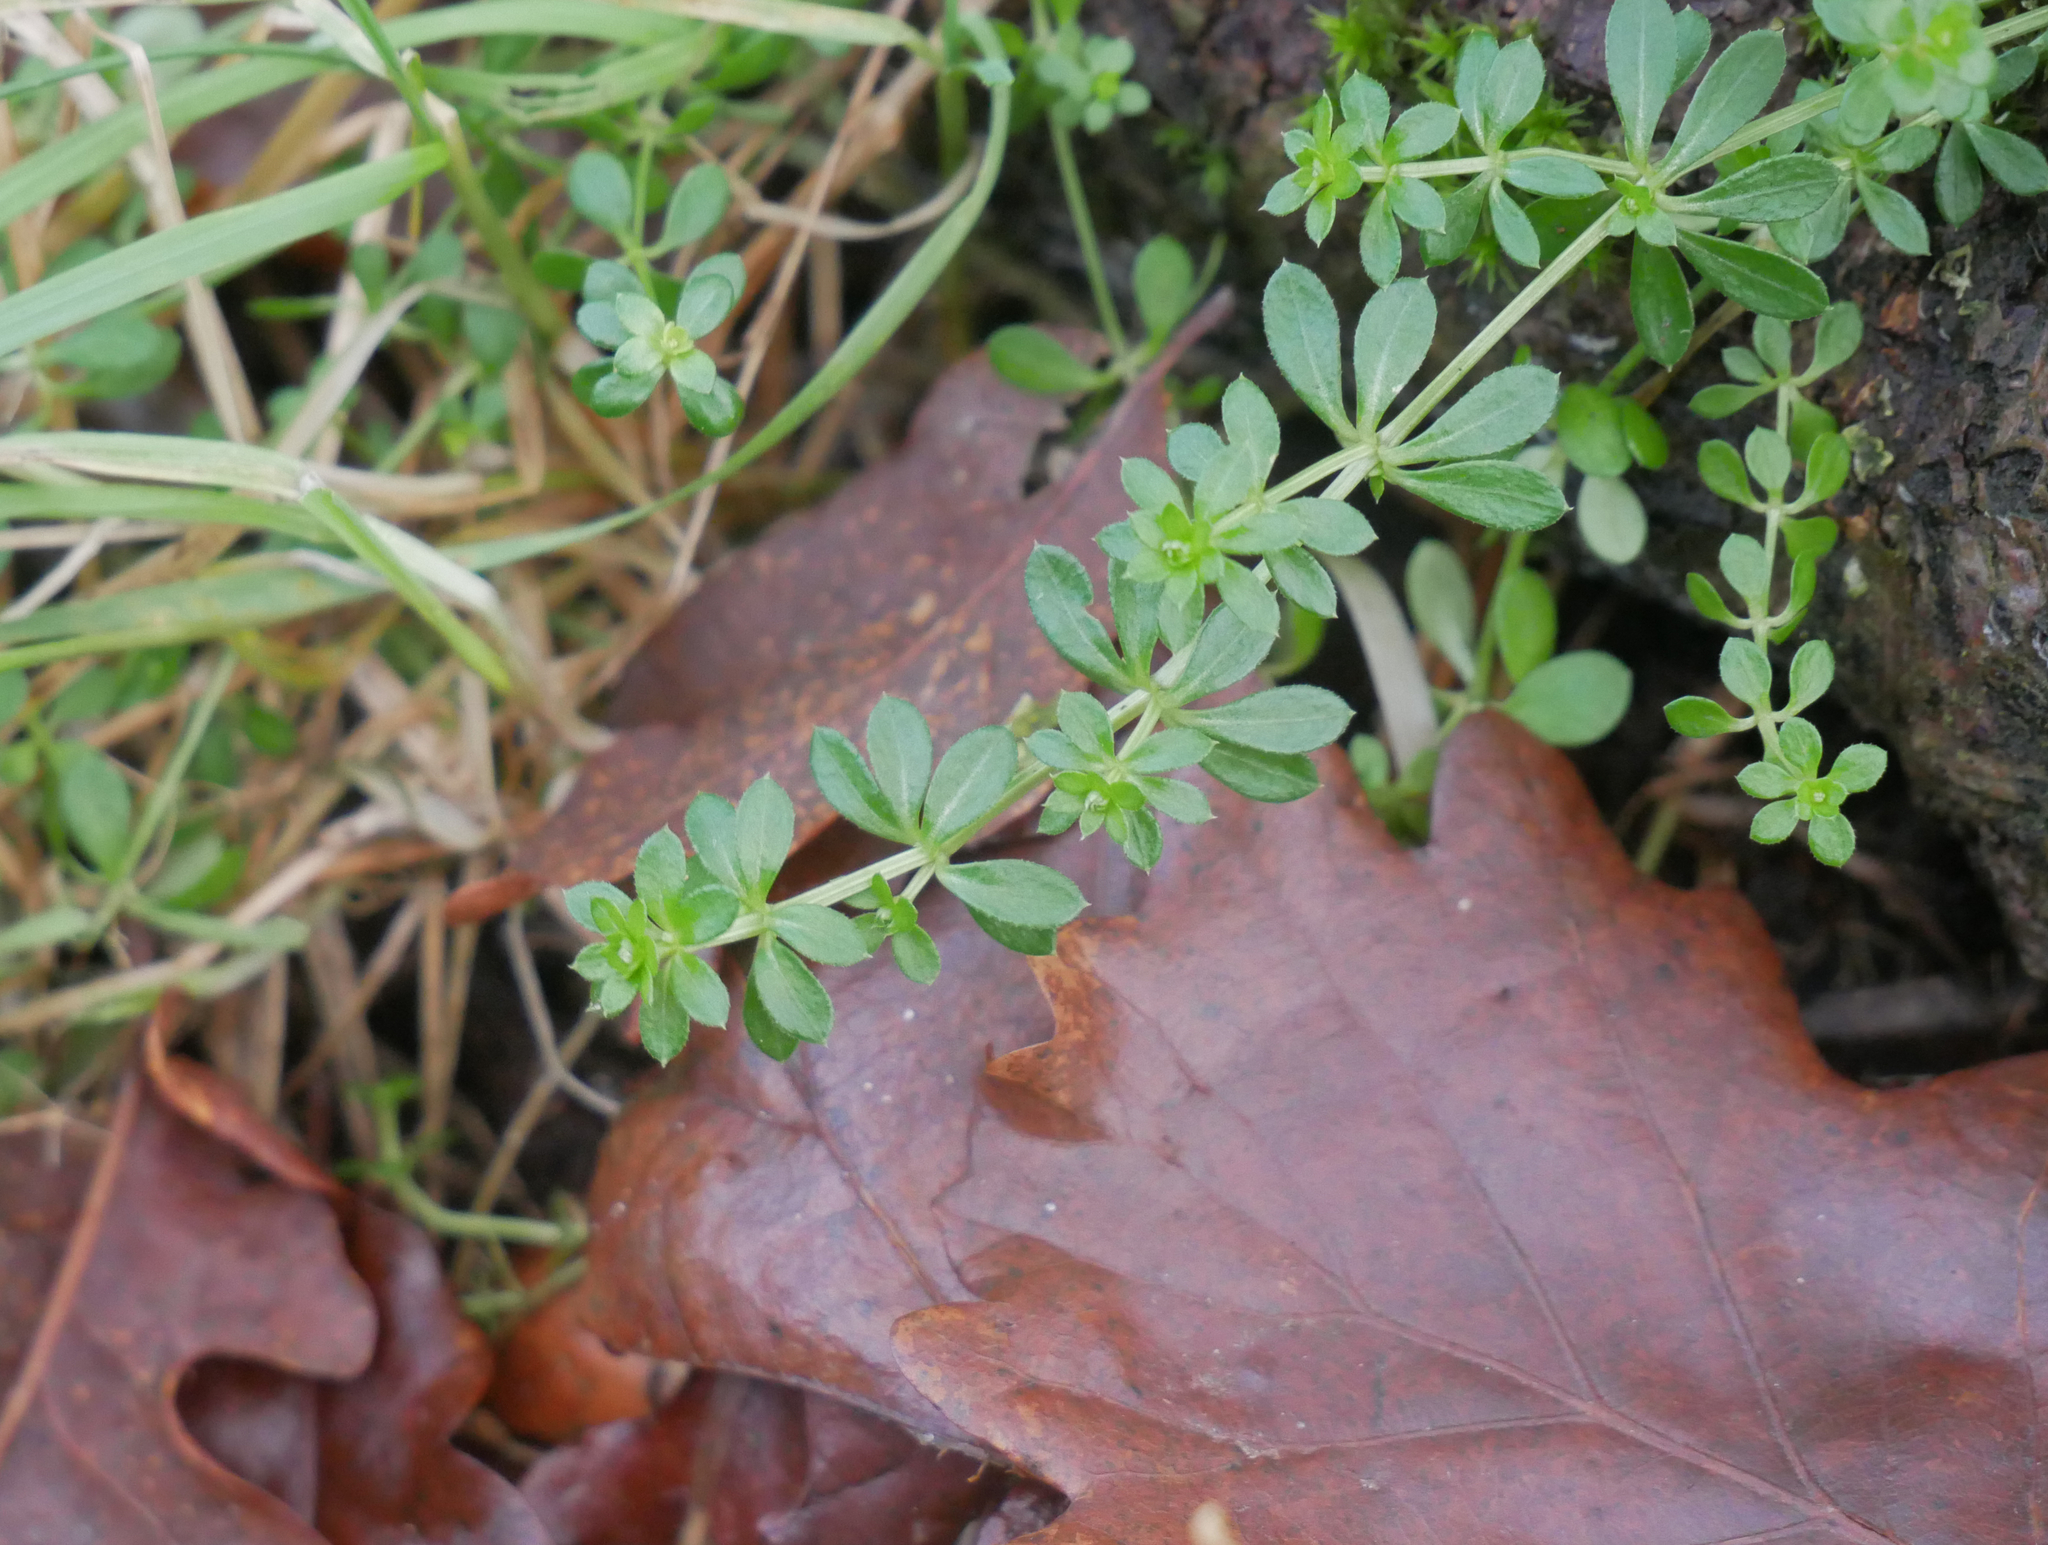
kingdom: Plantae
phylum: Tracheophyta
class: Magnoliopsida
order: Gentianales
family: Rubiaceae
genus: Galium
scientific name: Galium aparine
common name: Cleavers
